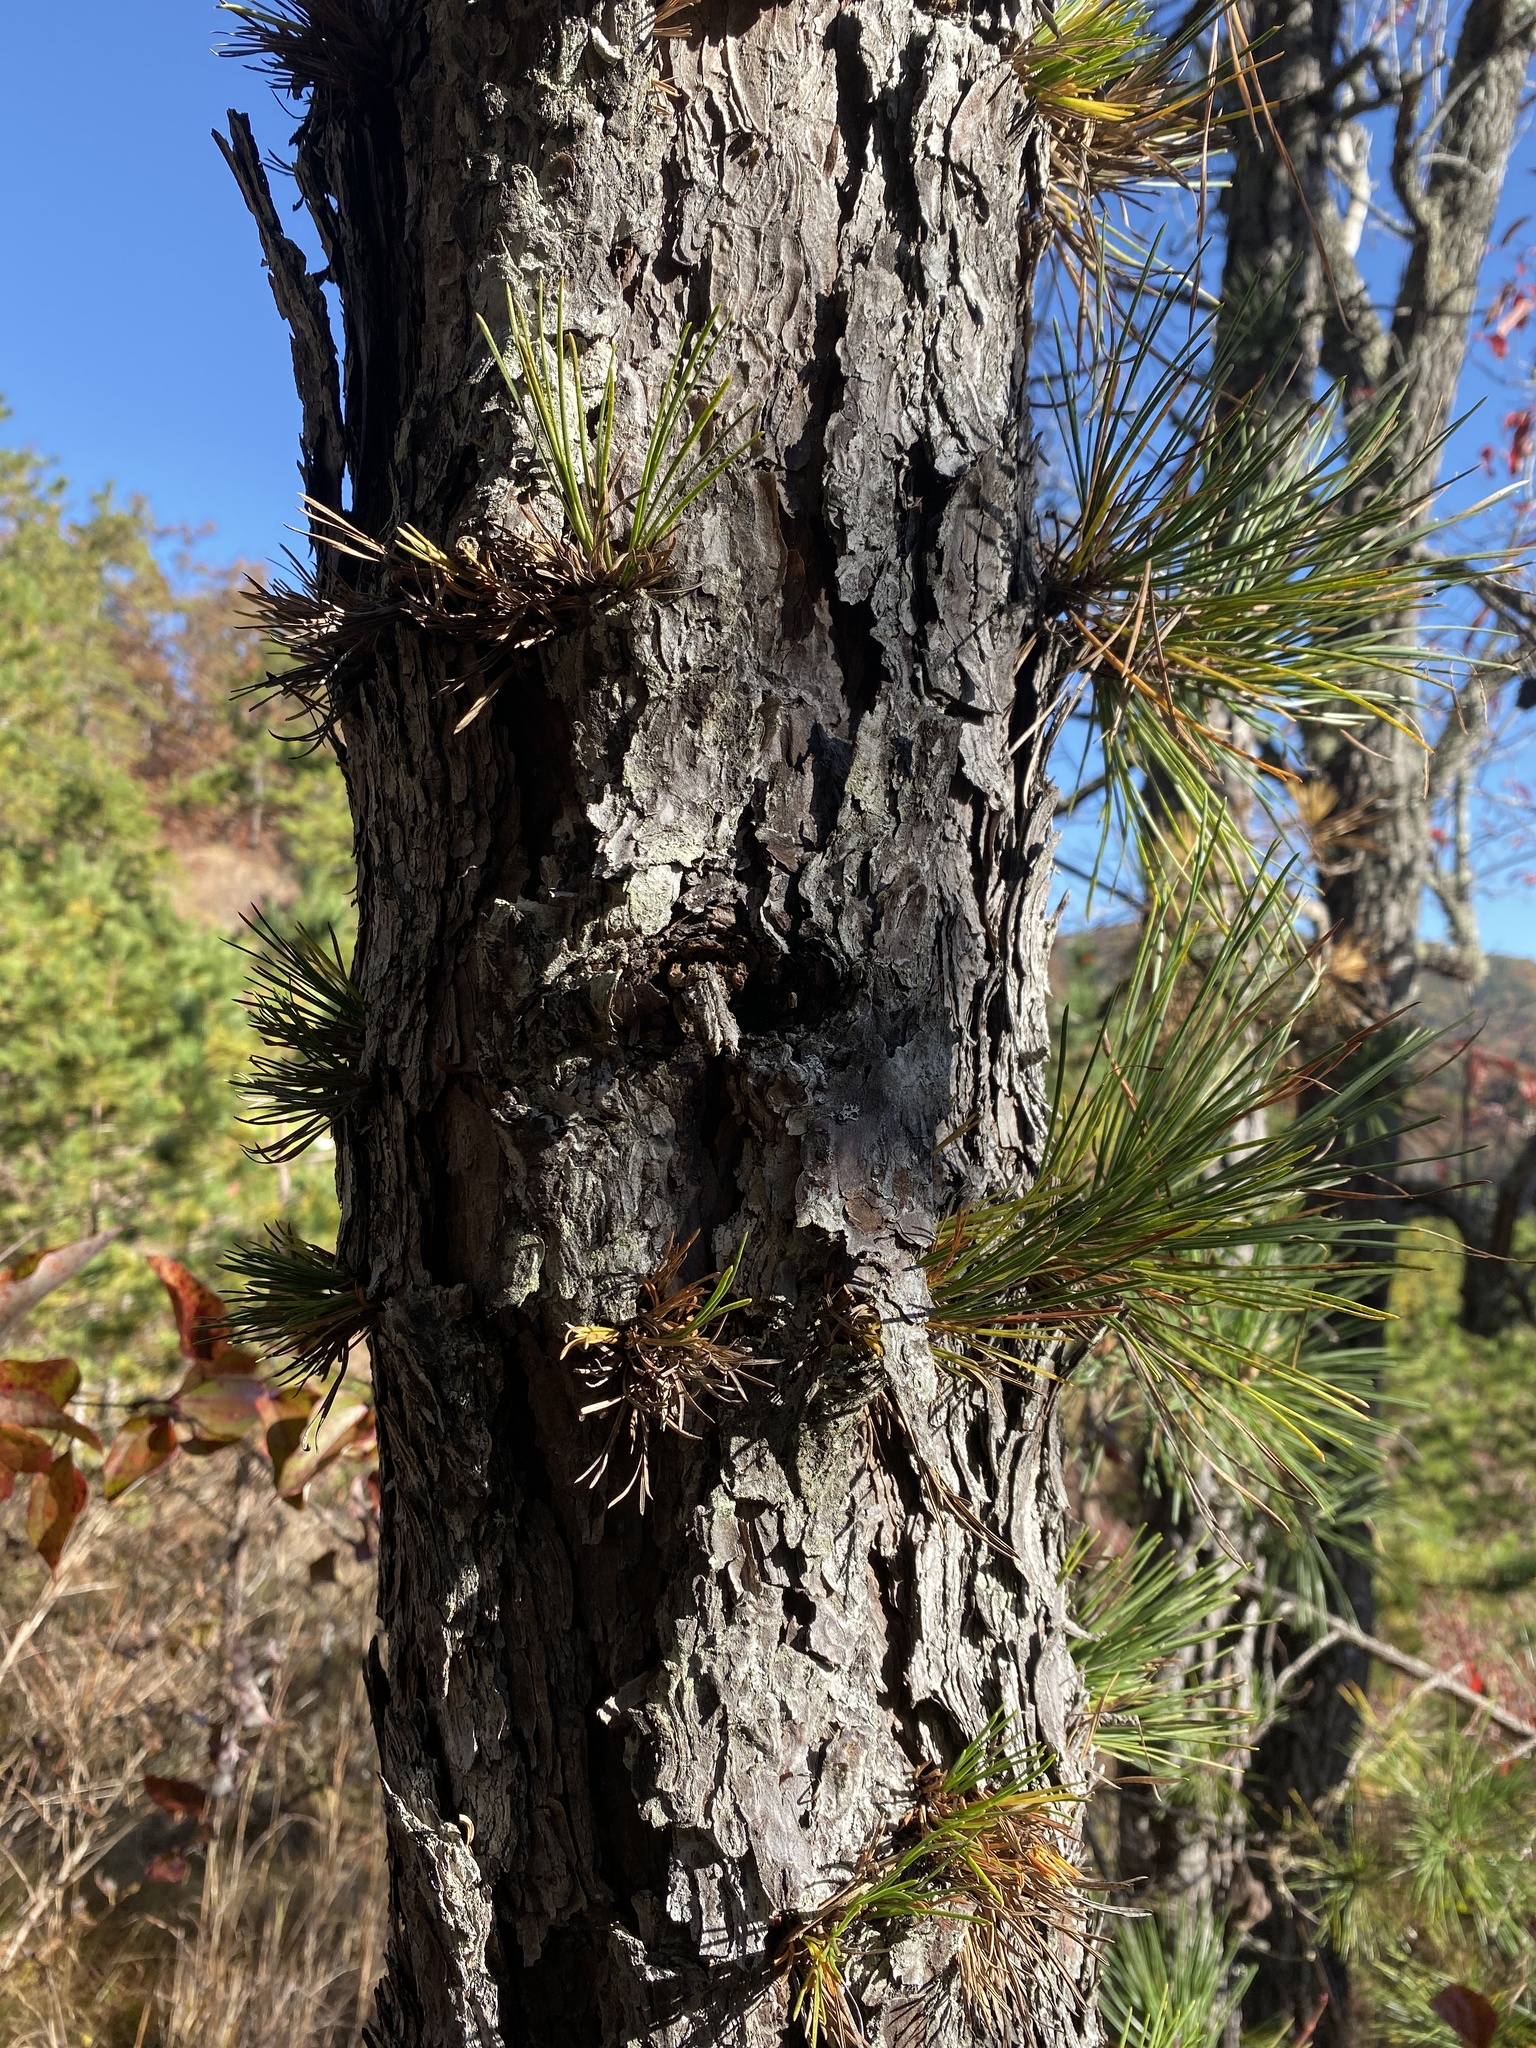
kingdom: Plantae
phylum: Tracheophyta
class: Pinopsida
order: Pinales
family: Pinaceae
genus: Pinus
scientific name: Pinus rigida
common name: Pitch pine
